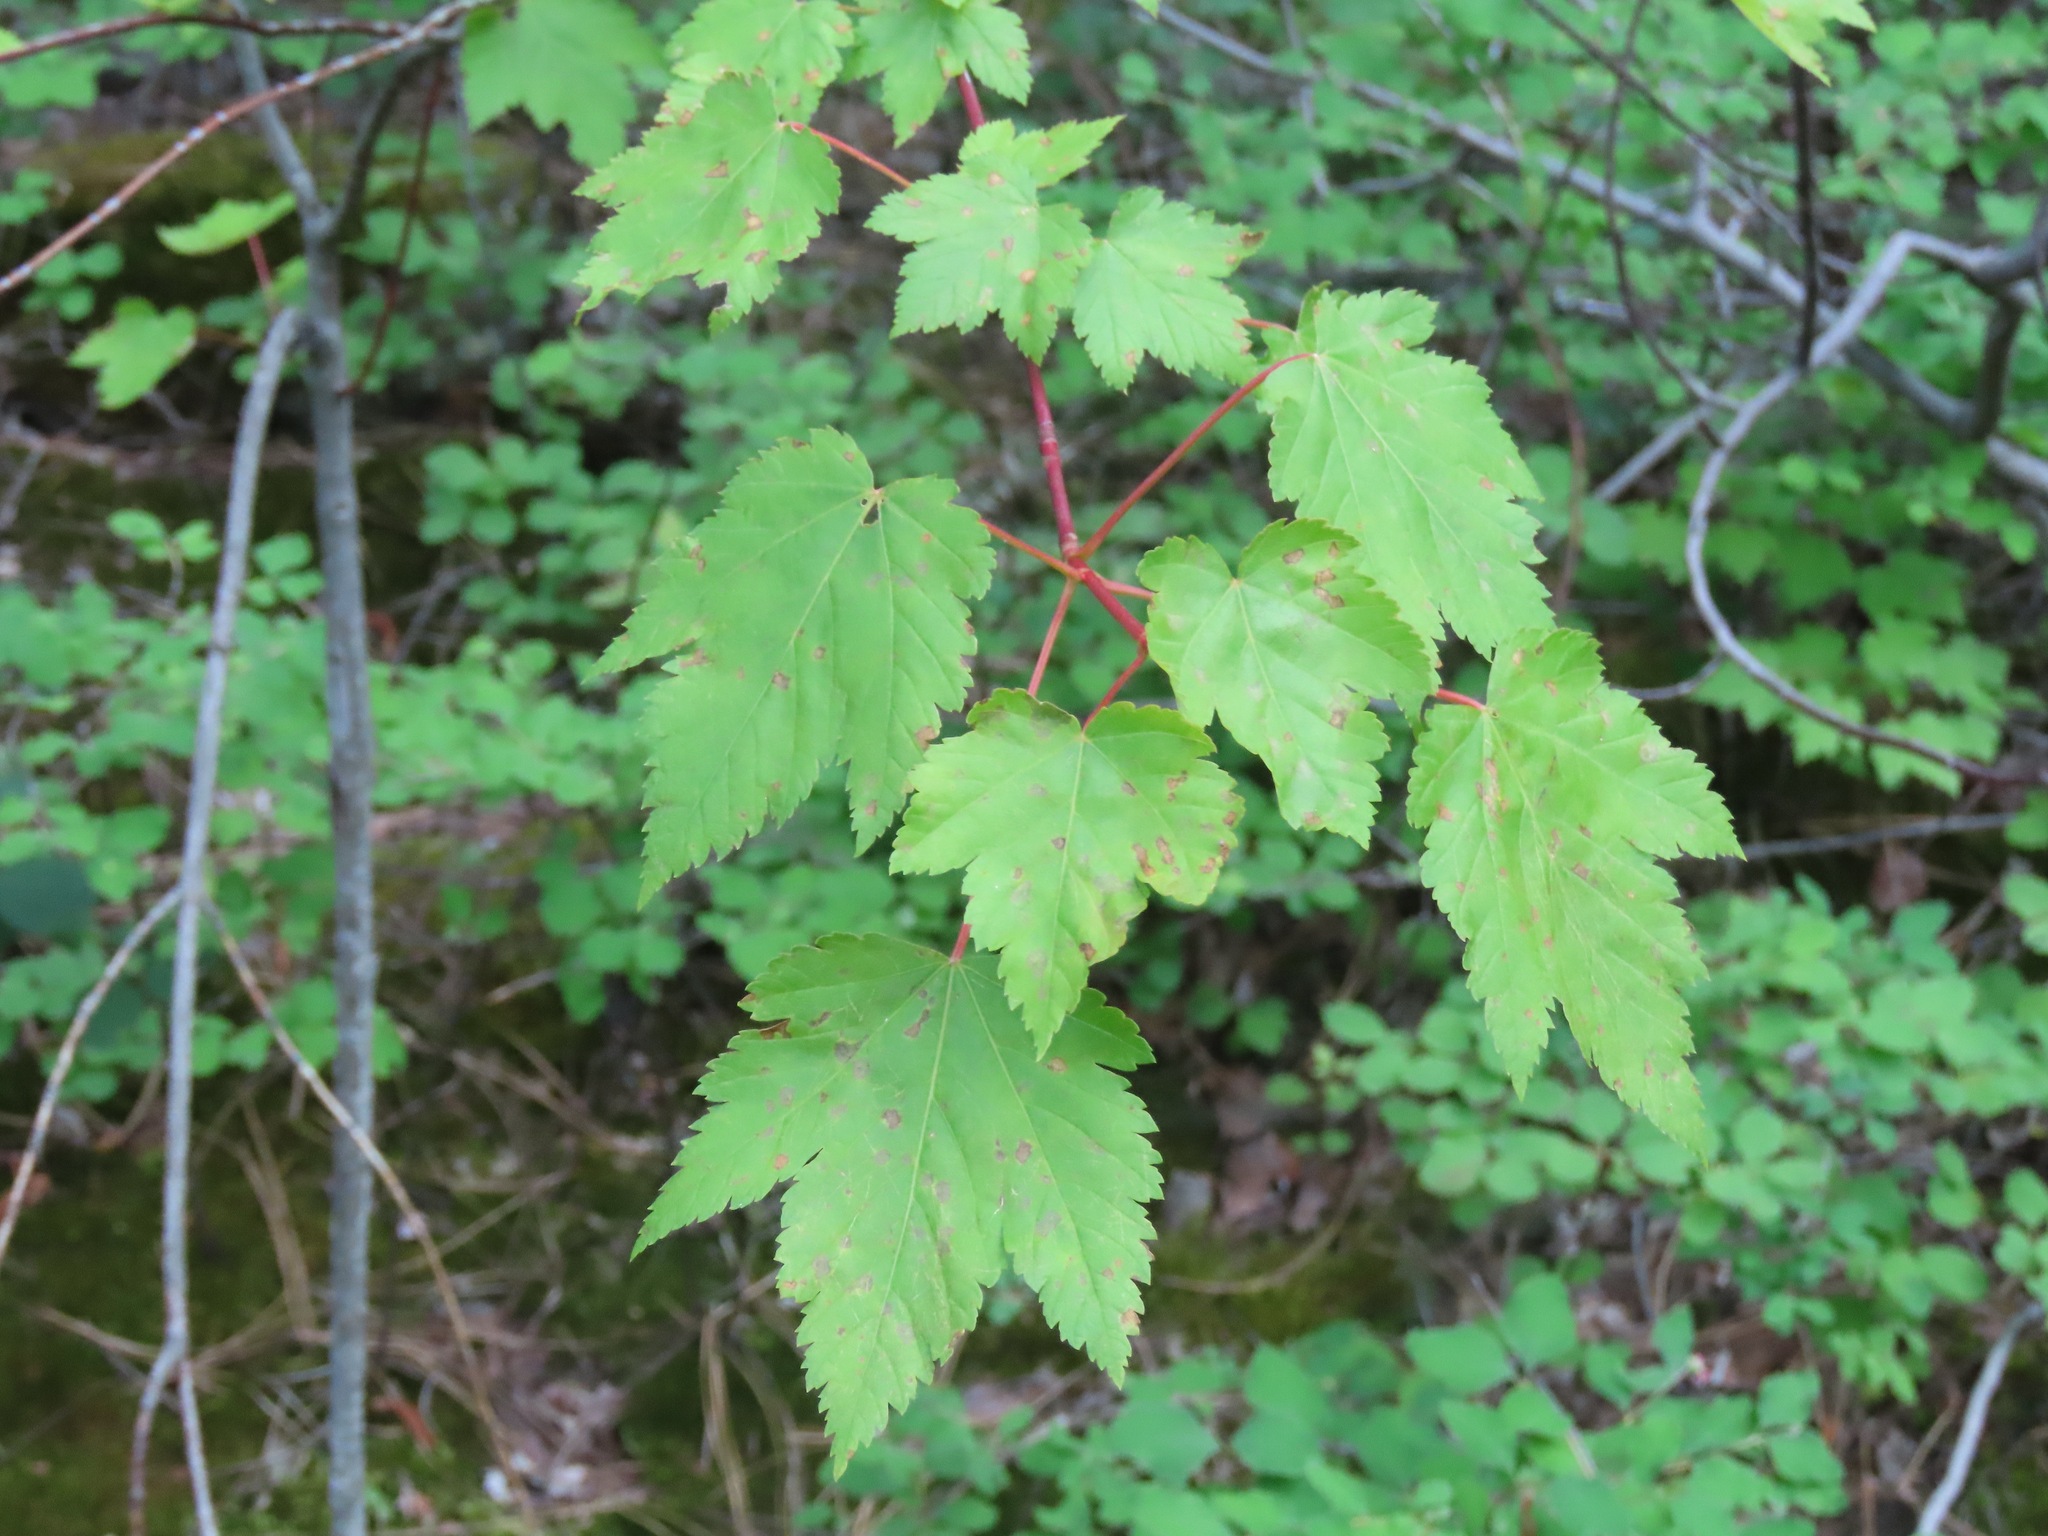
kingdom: Plantae
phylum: Tracheophyta
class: Magnoliopsida
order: Sapindales
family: Sapindaceae
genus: Acer
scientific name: Acer glabrum
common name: Rocky mountain maple
